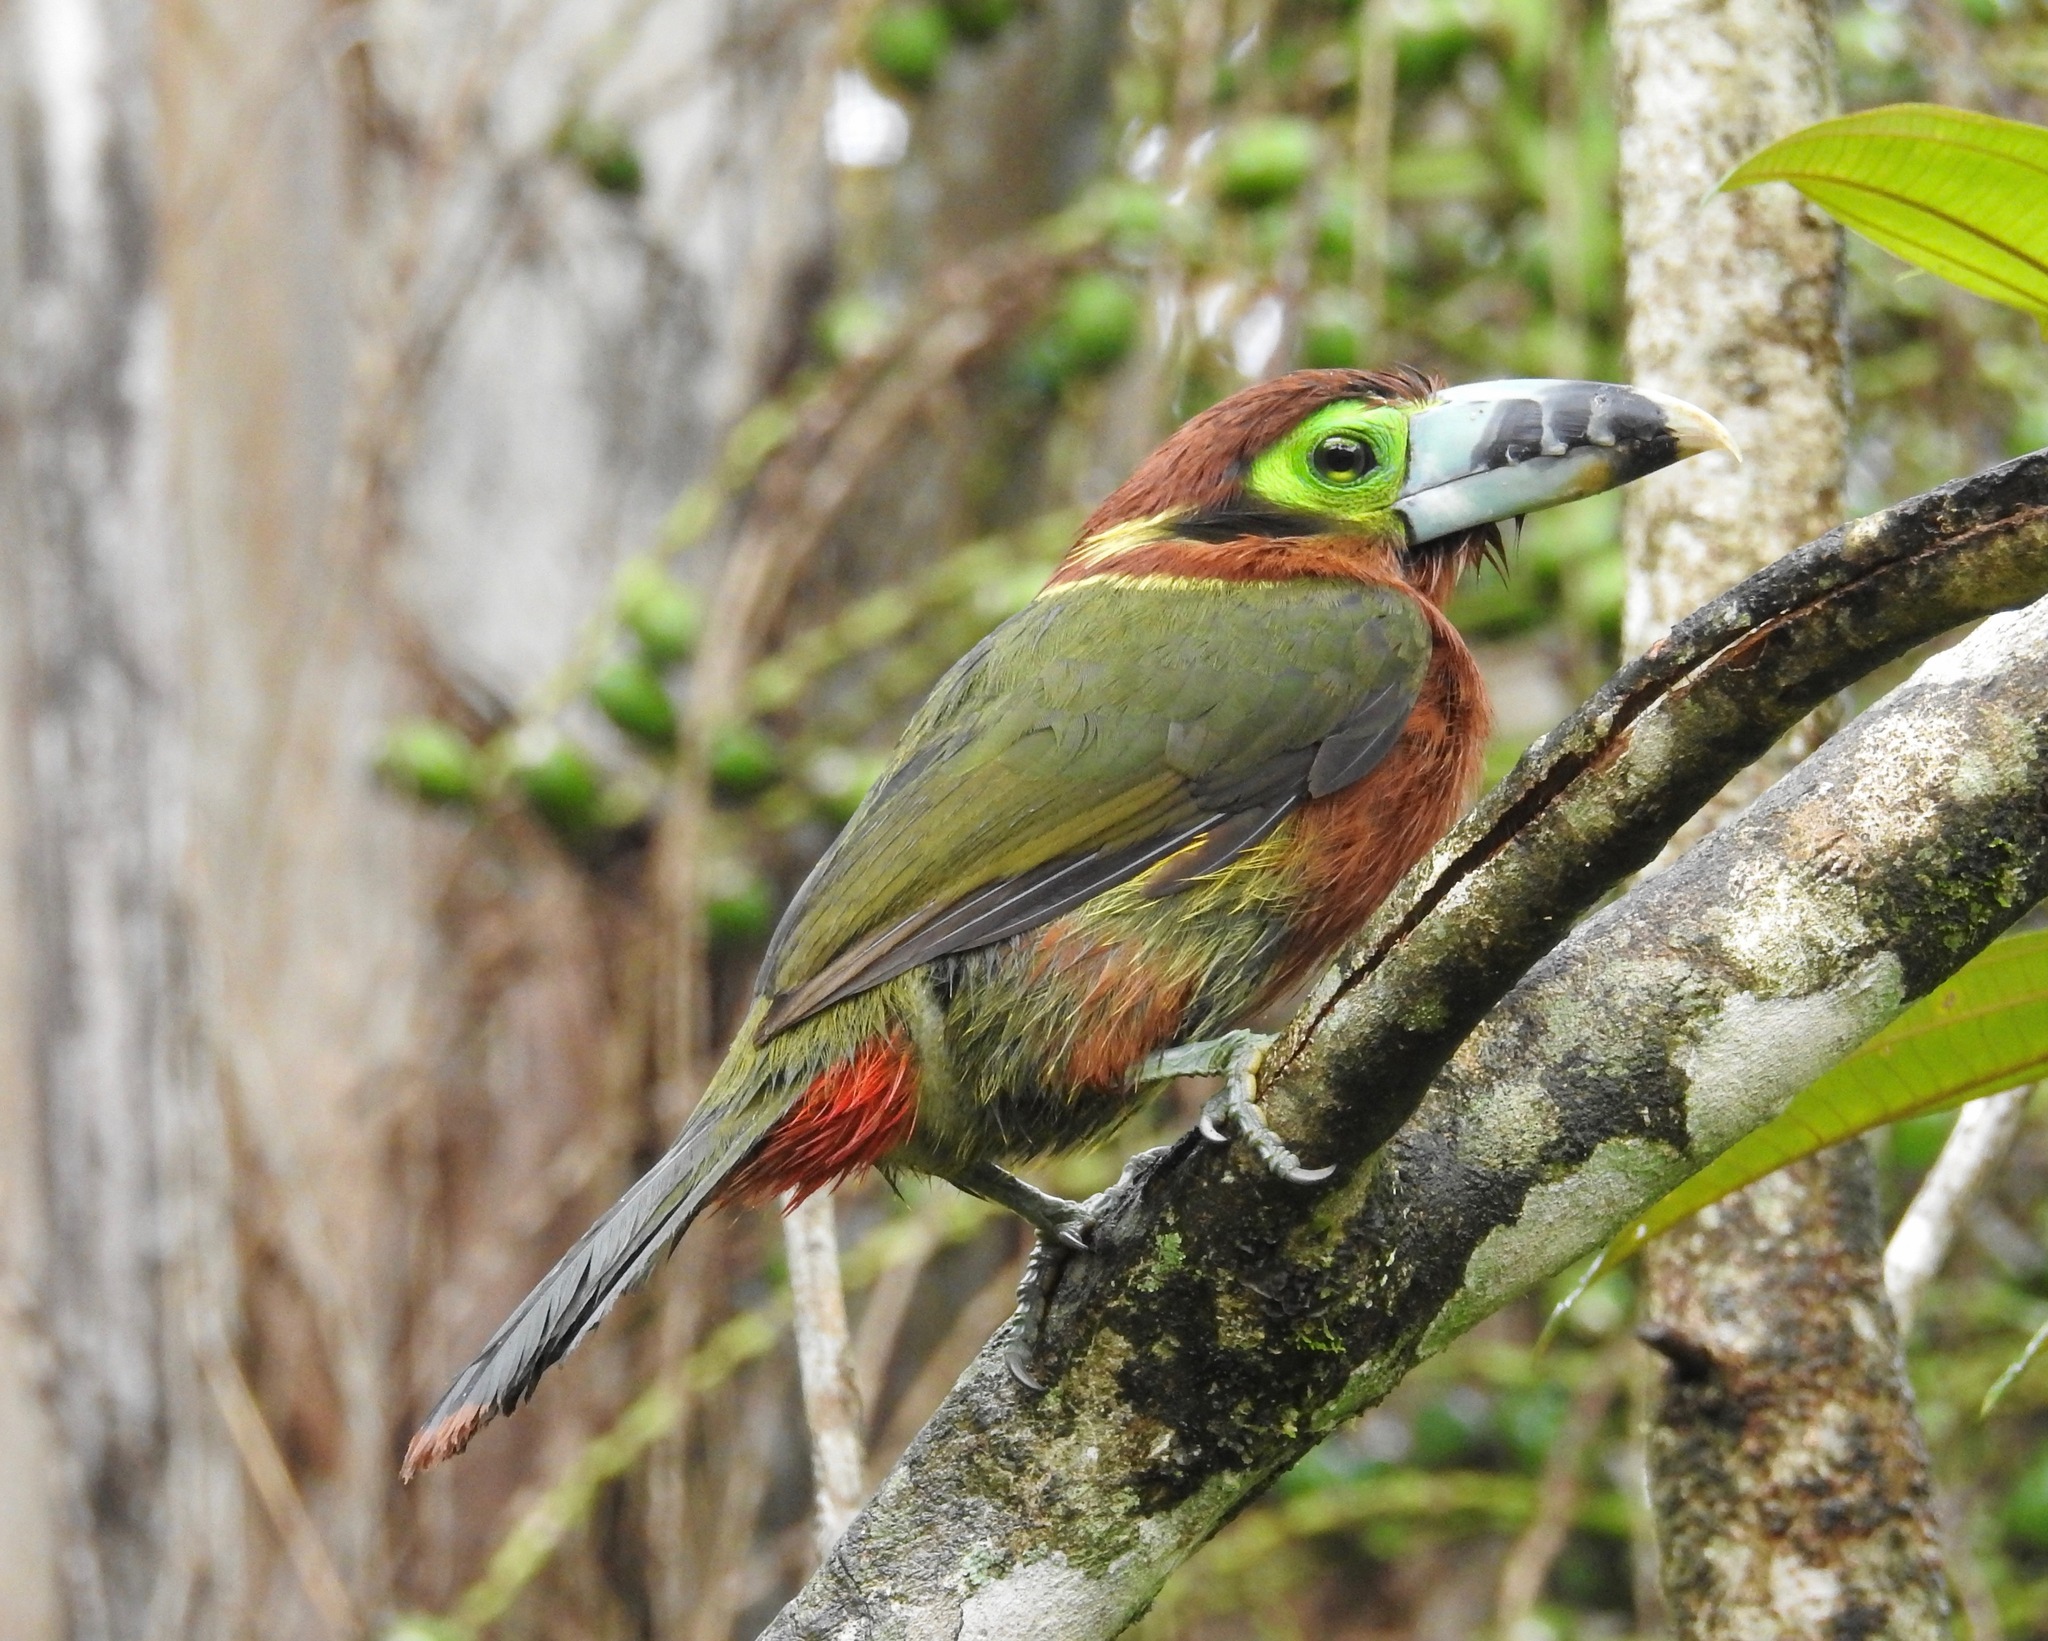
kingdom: Animalia
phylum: Chordata
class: Aves
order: Piciformes
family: Ramphastidae
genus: Selenidera
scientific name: Selenidera maculirostris
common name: Spot-billed toucanet
